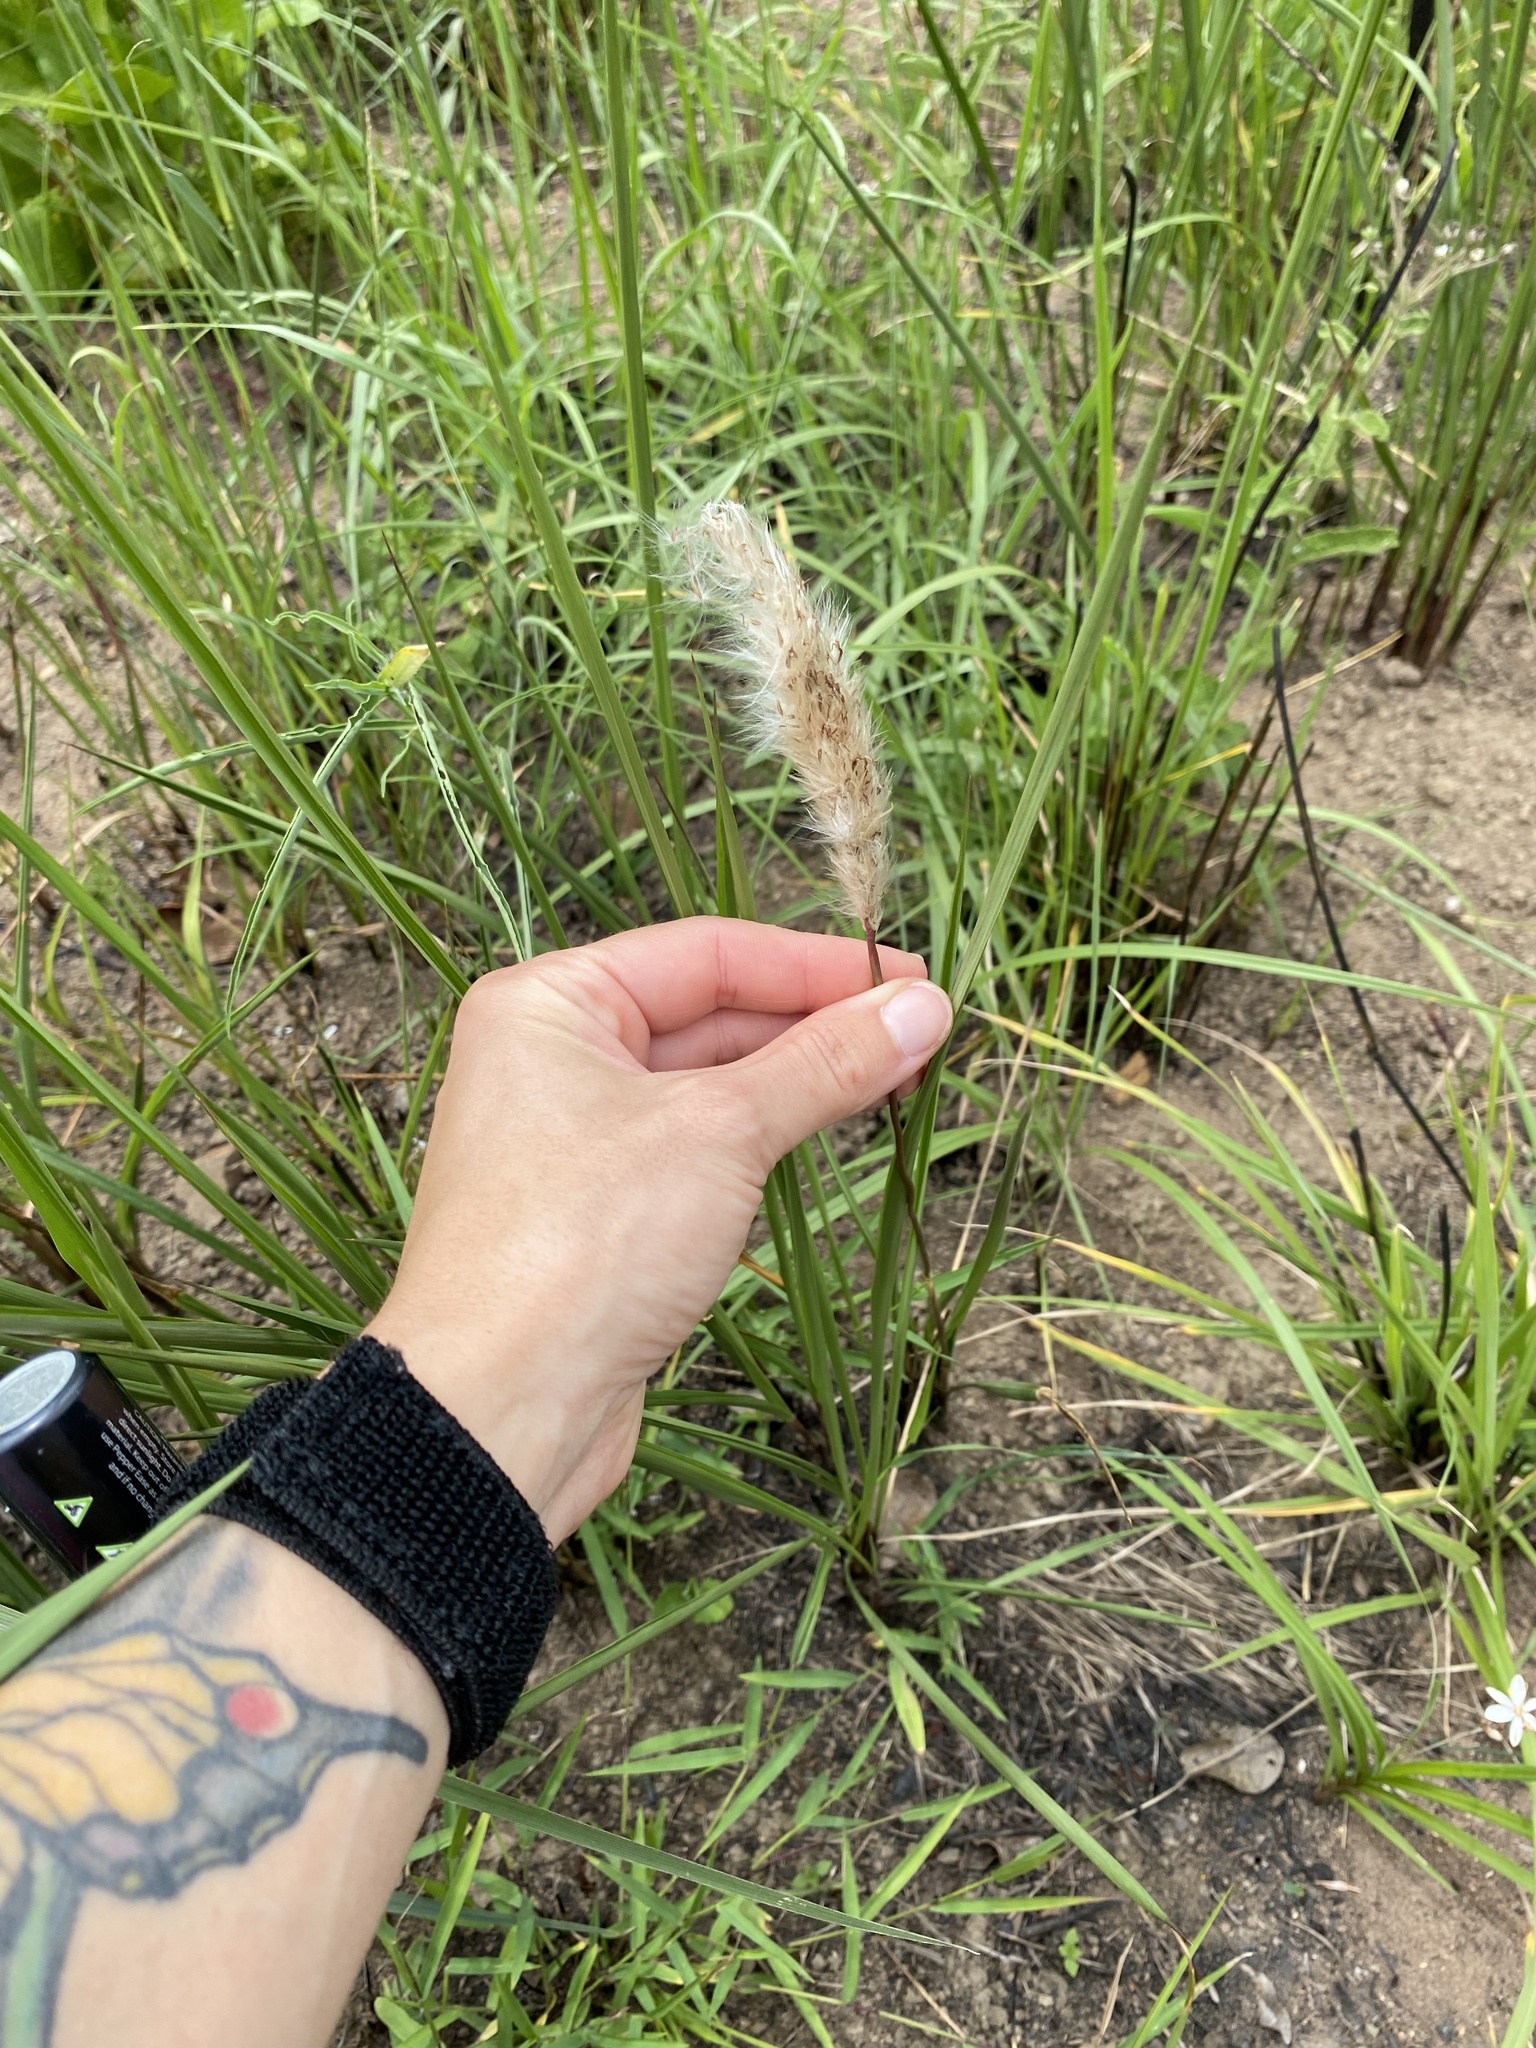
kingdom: Plantae
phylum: Tracheophyta
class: Liliopsida
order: Poales
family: Poaceae
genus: Imperata
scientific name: Imperata cylindrica
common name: Cogongrass
